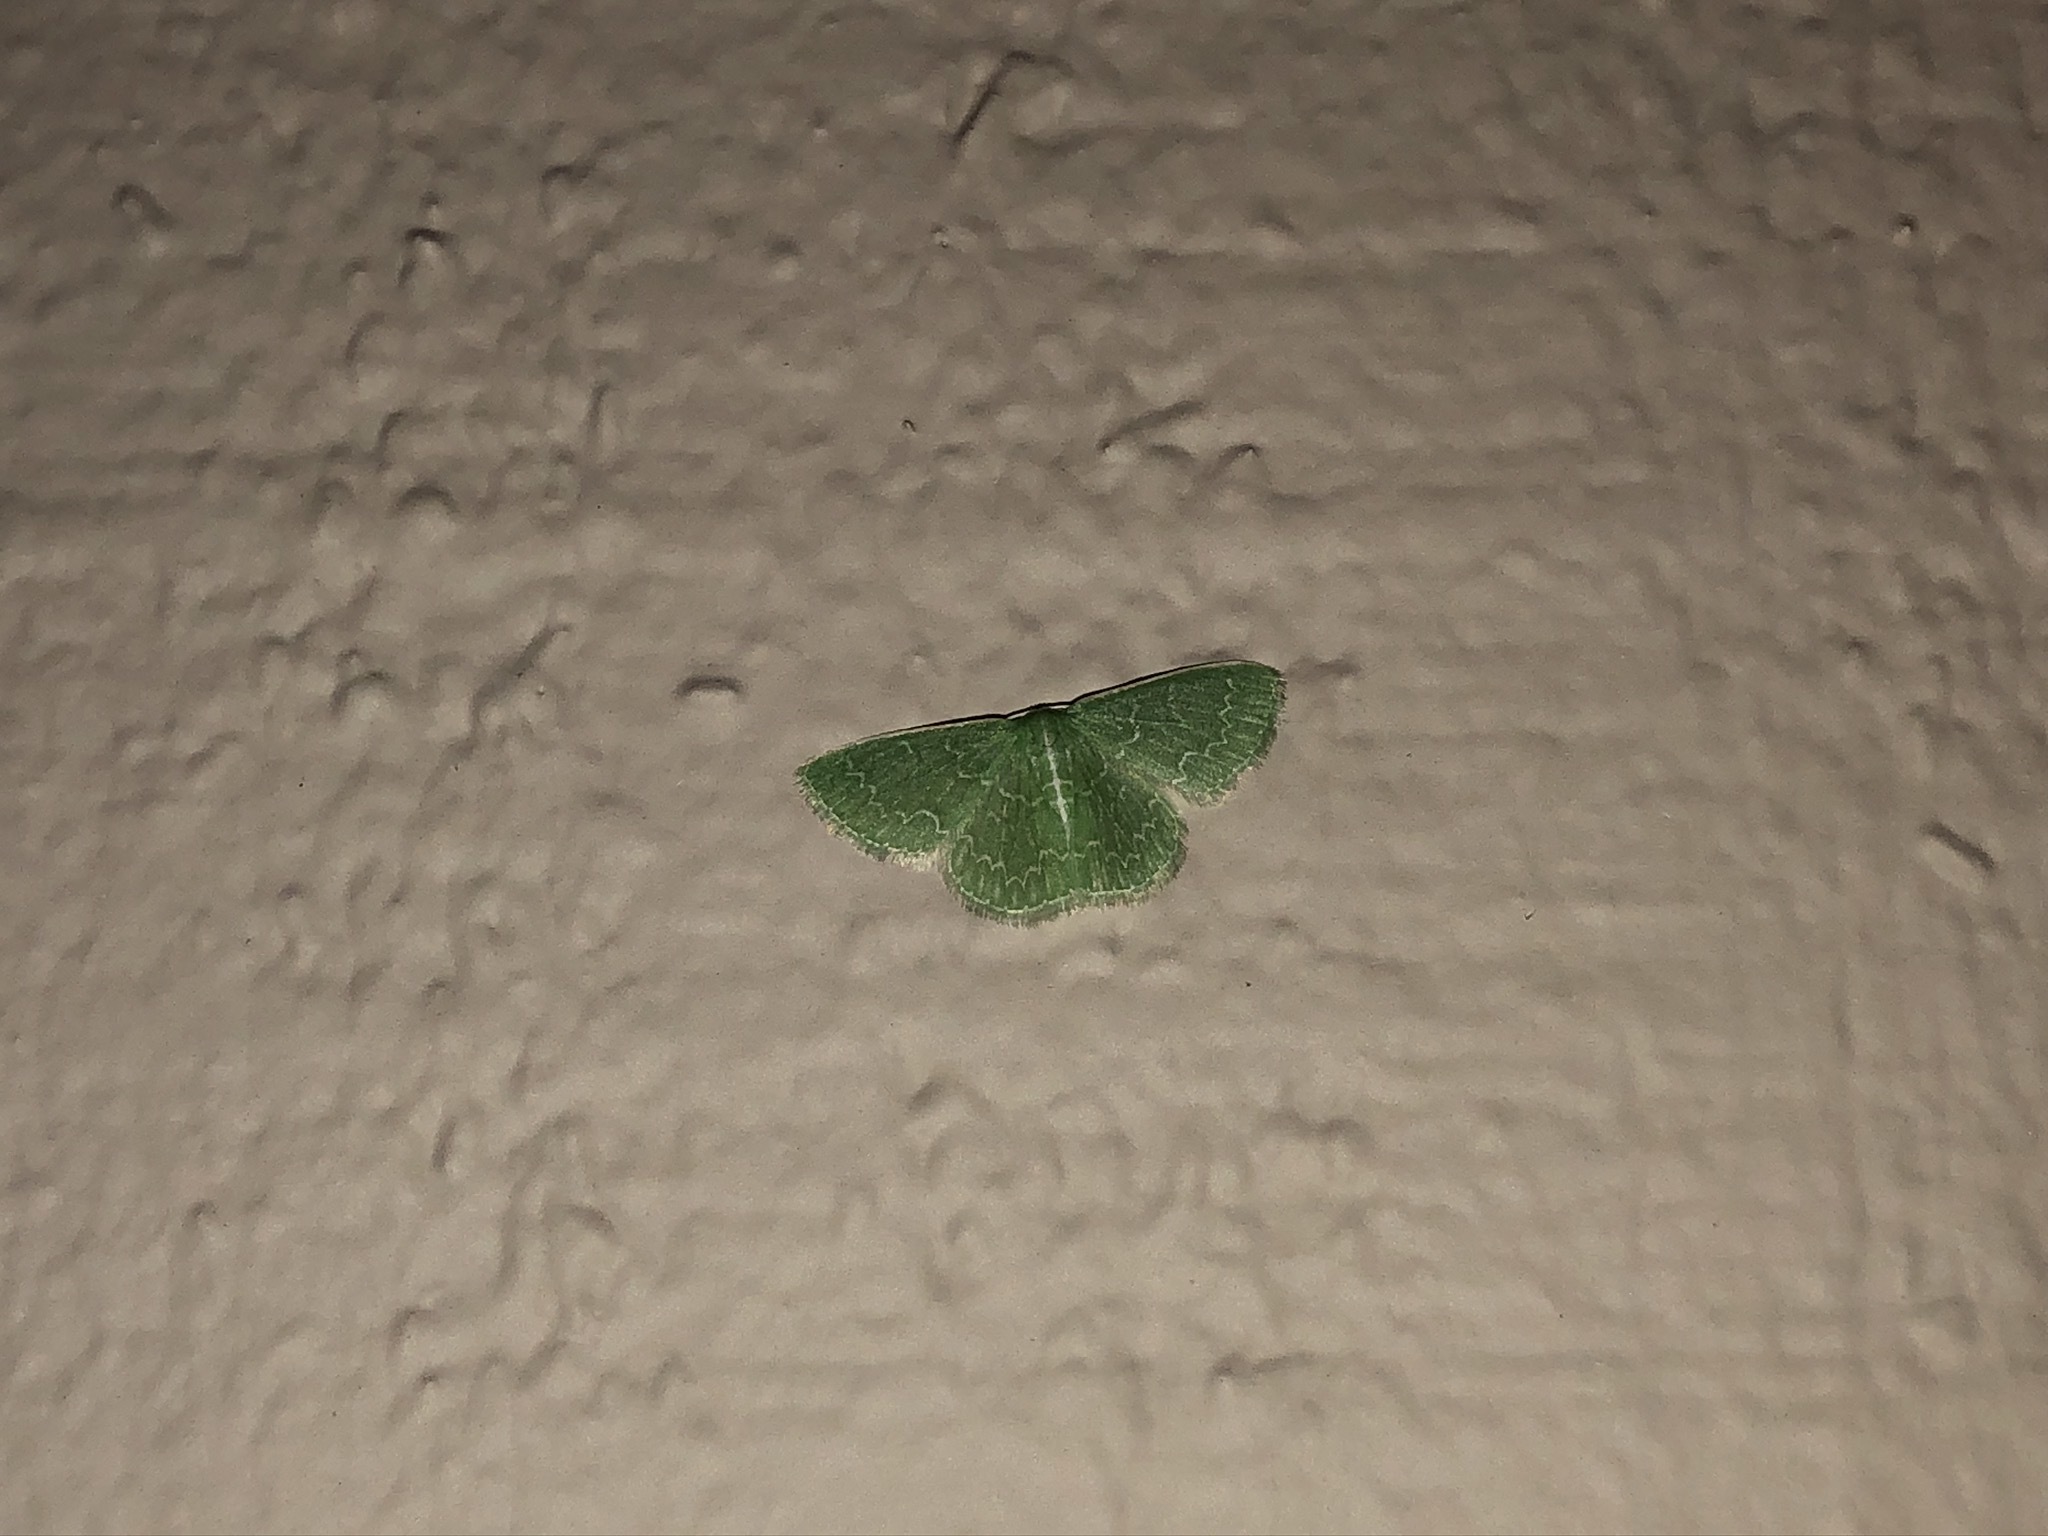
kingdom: Animalia
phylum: Arthropoda
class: Insecta
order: Lepidoptera
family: Geometridae
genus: Synchlora
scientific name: Synchlora frondaria
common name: Southern emerald
